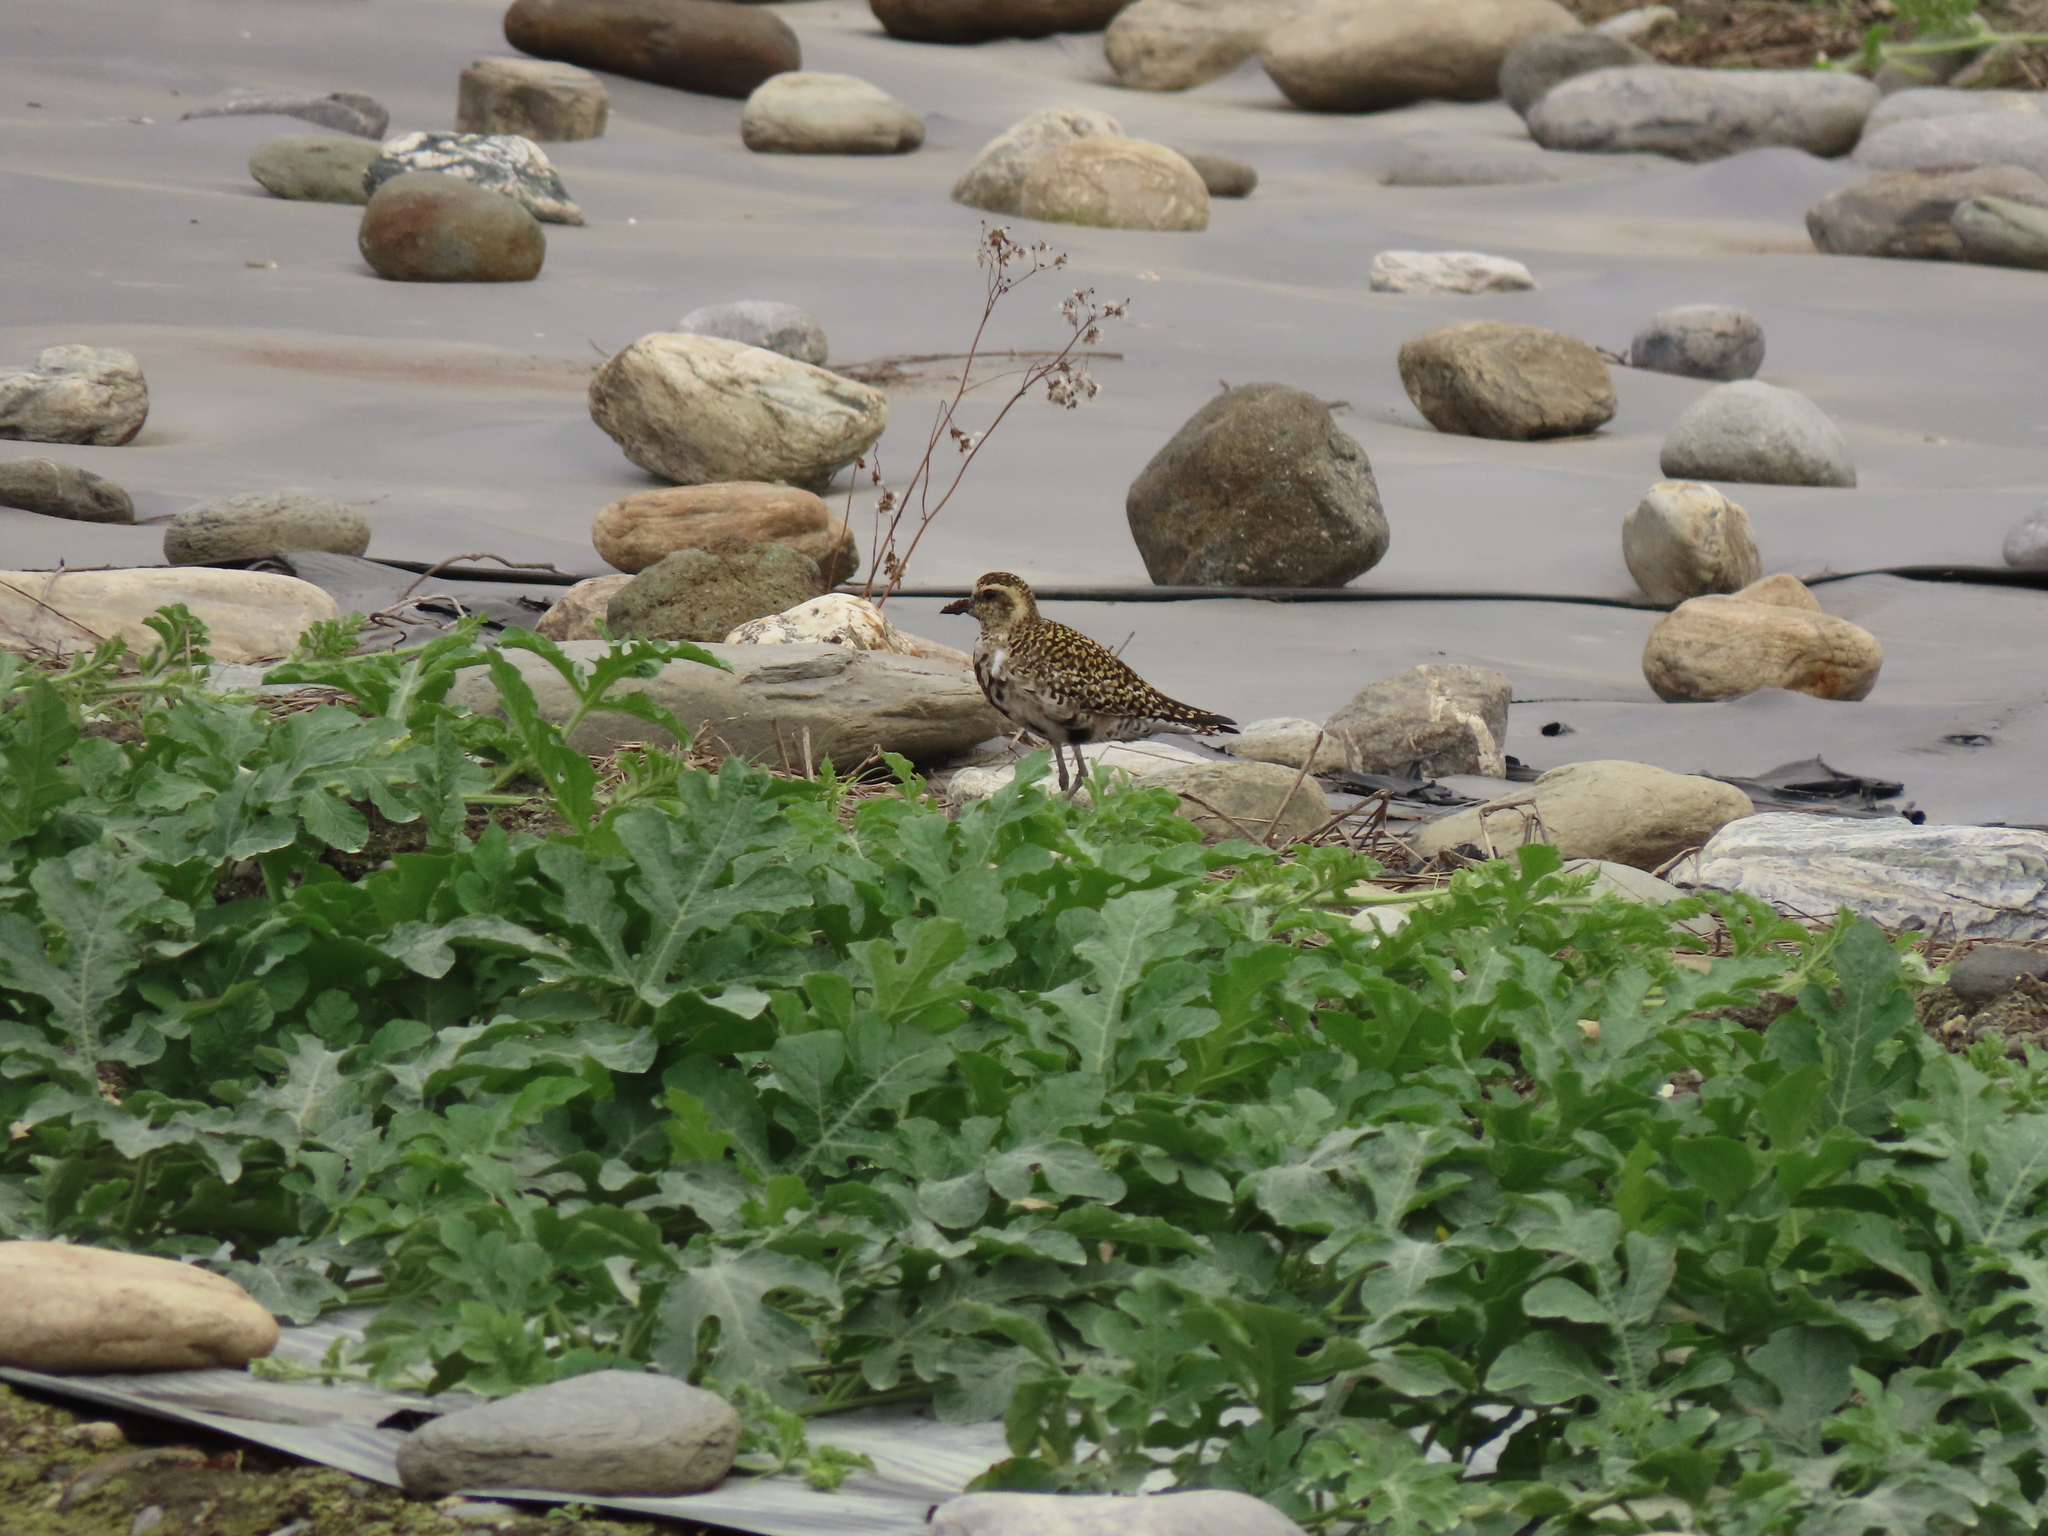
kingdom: Animalia
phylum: Chordata
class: Aves
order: Charadriiformes
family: Charadriidae
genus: Pluvialis
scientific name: Pluvialis fulva
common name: Pacific golden plover
